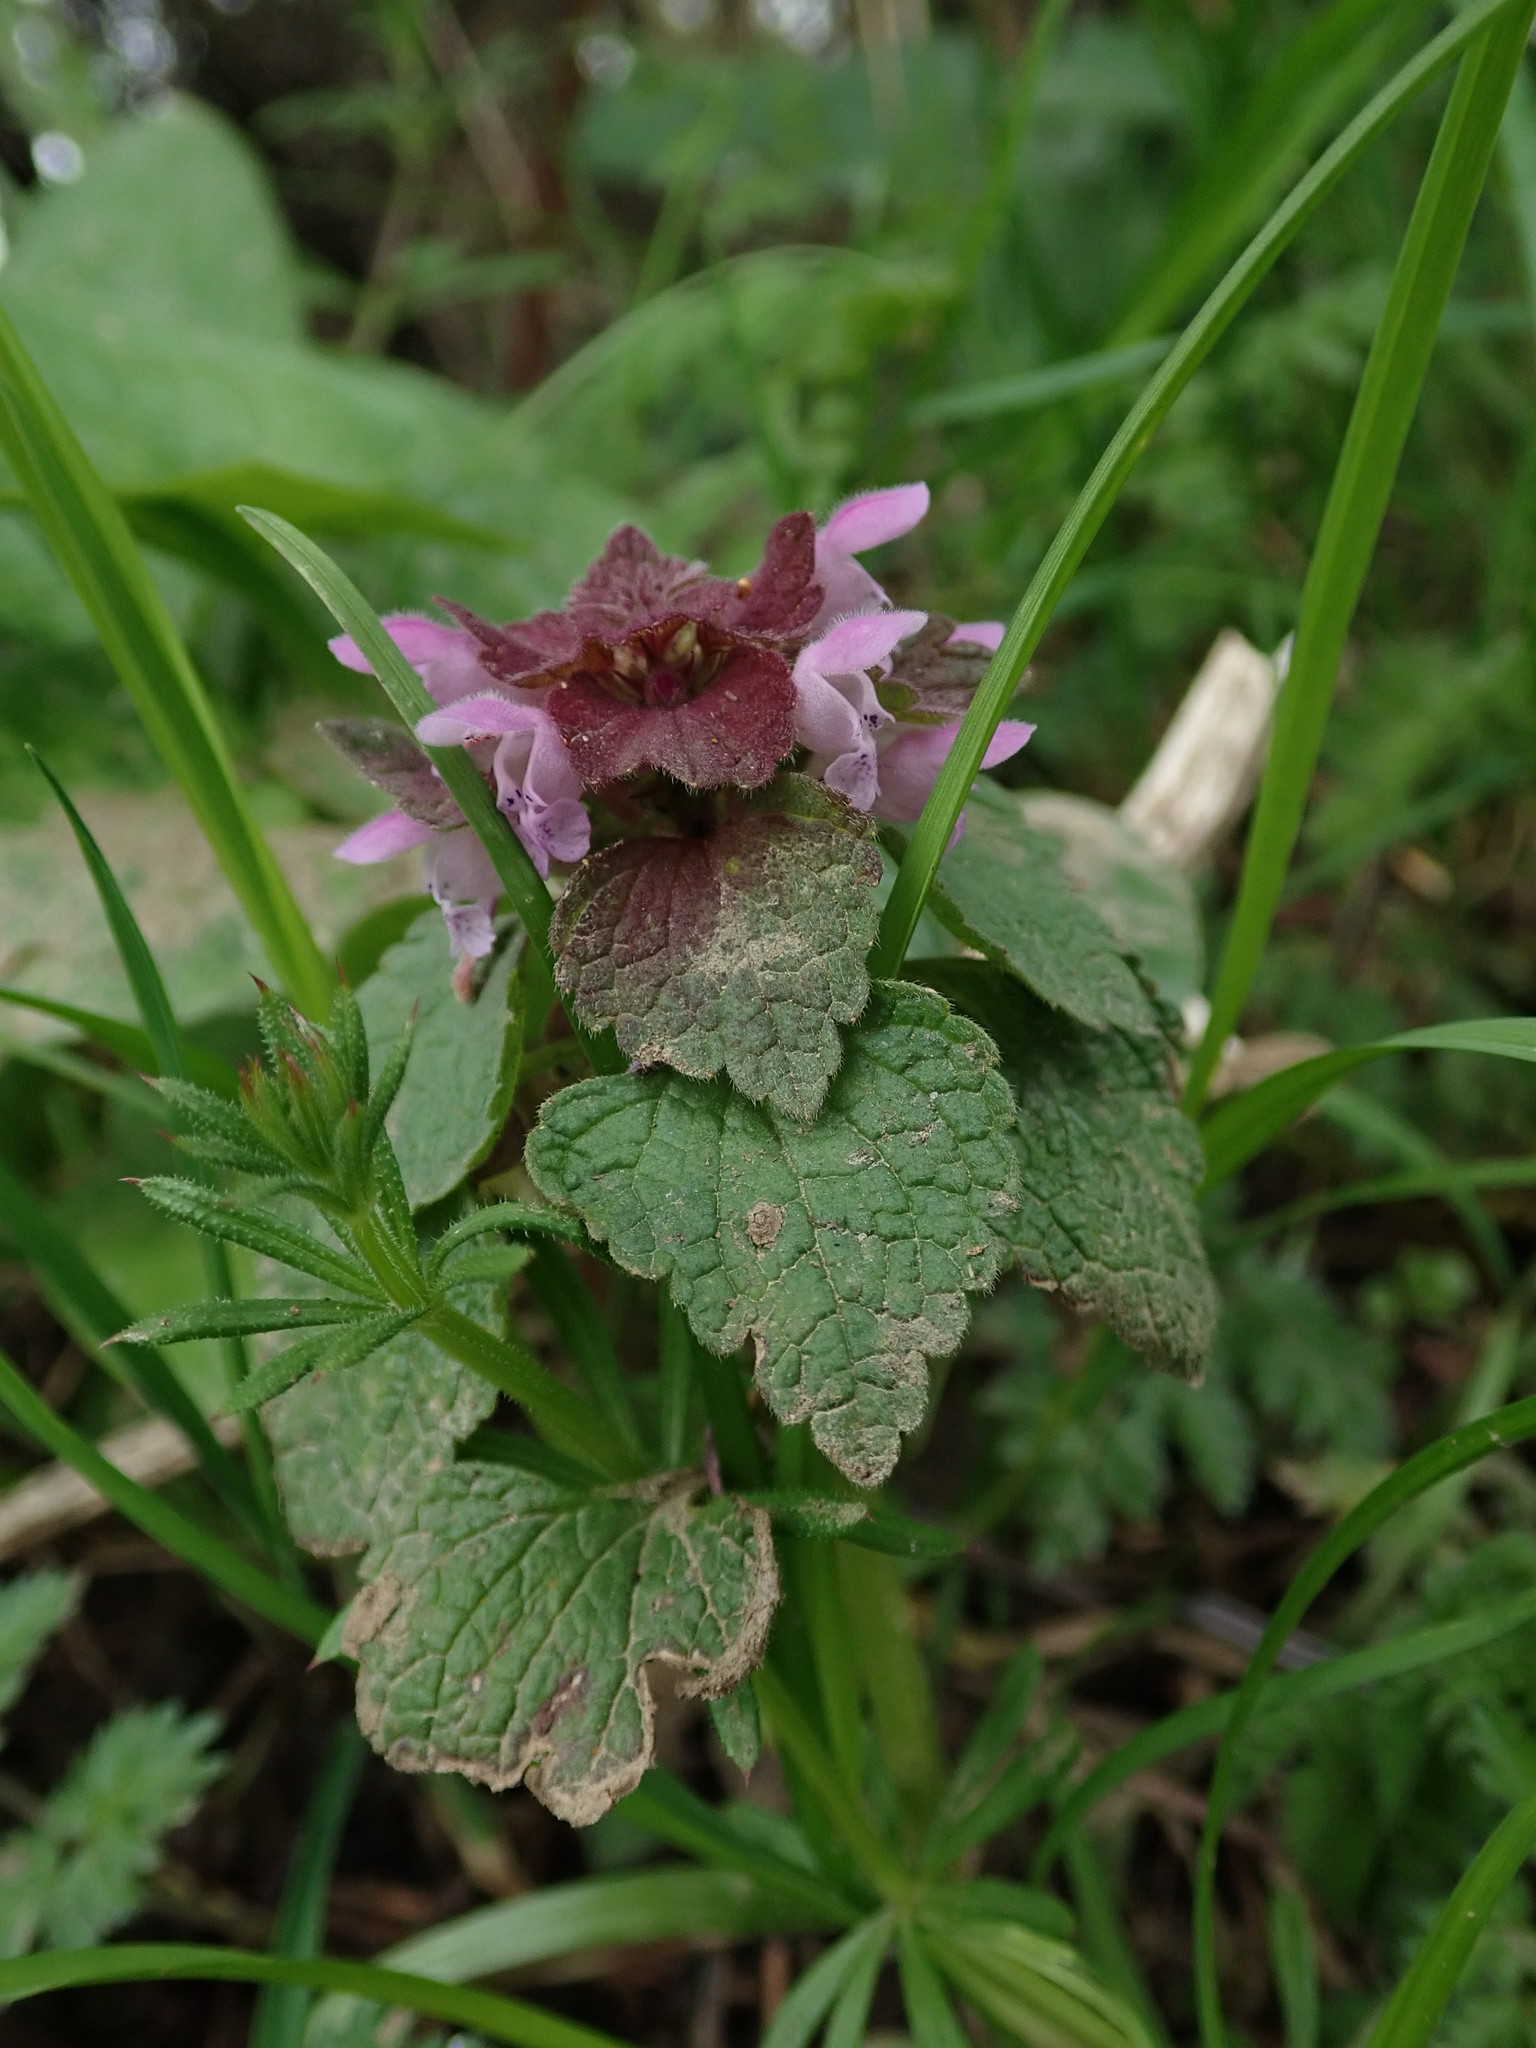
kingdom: Plantae
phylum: Tracheophyta
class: Magnoliopsida
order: Lamiales
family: Lamiaceae
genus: Lamium
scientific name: Lamium purpureum
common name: Red dead-nettle
